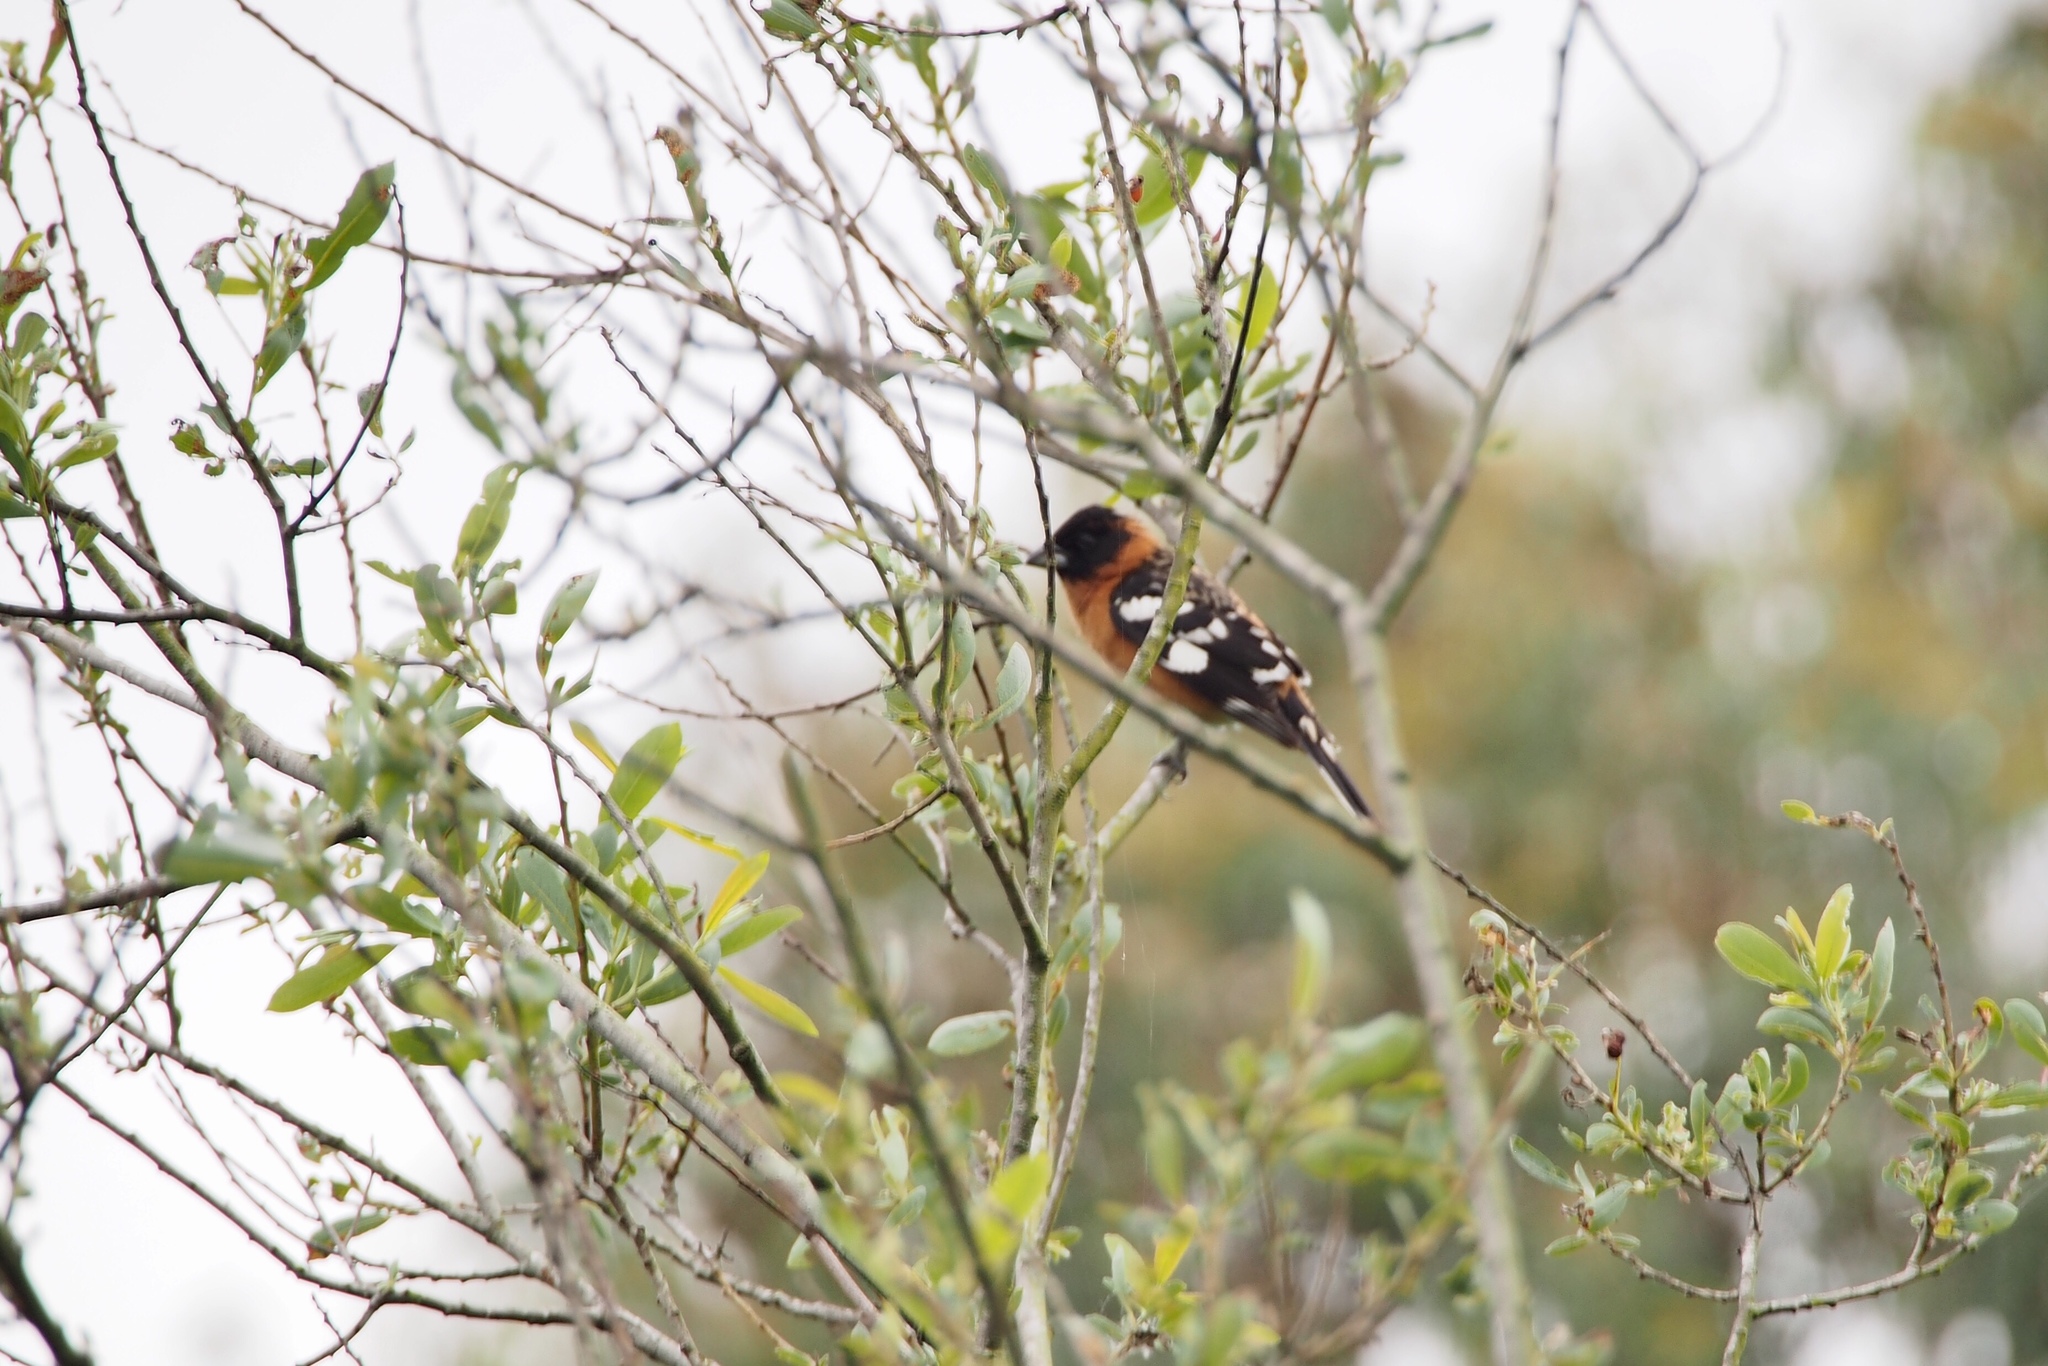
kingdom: Animalia
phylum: Chordata
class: Aves
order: Passeriformes
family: Cardinalidae
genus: Pheucticus
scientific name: Pheucticus melanocephalus
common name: Black-headed grosbeak
